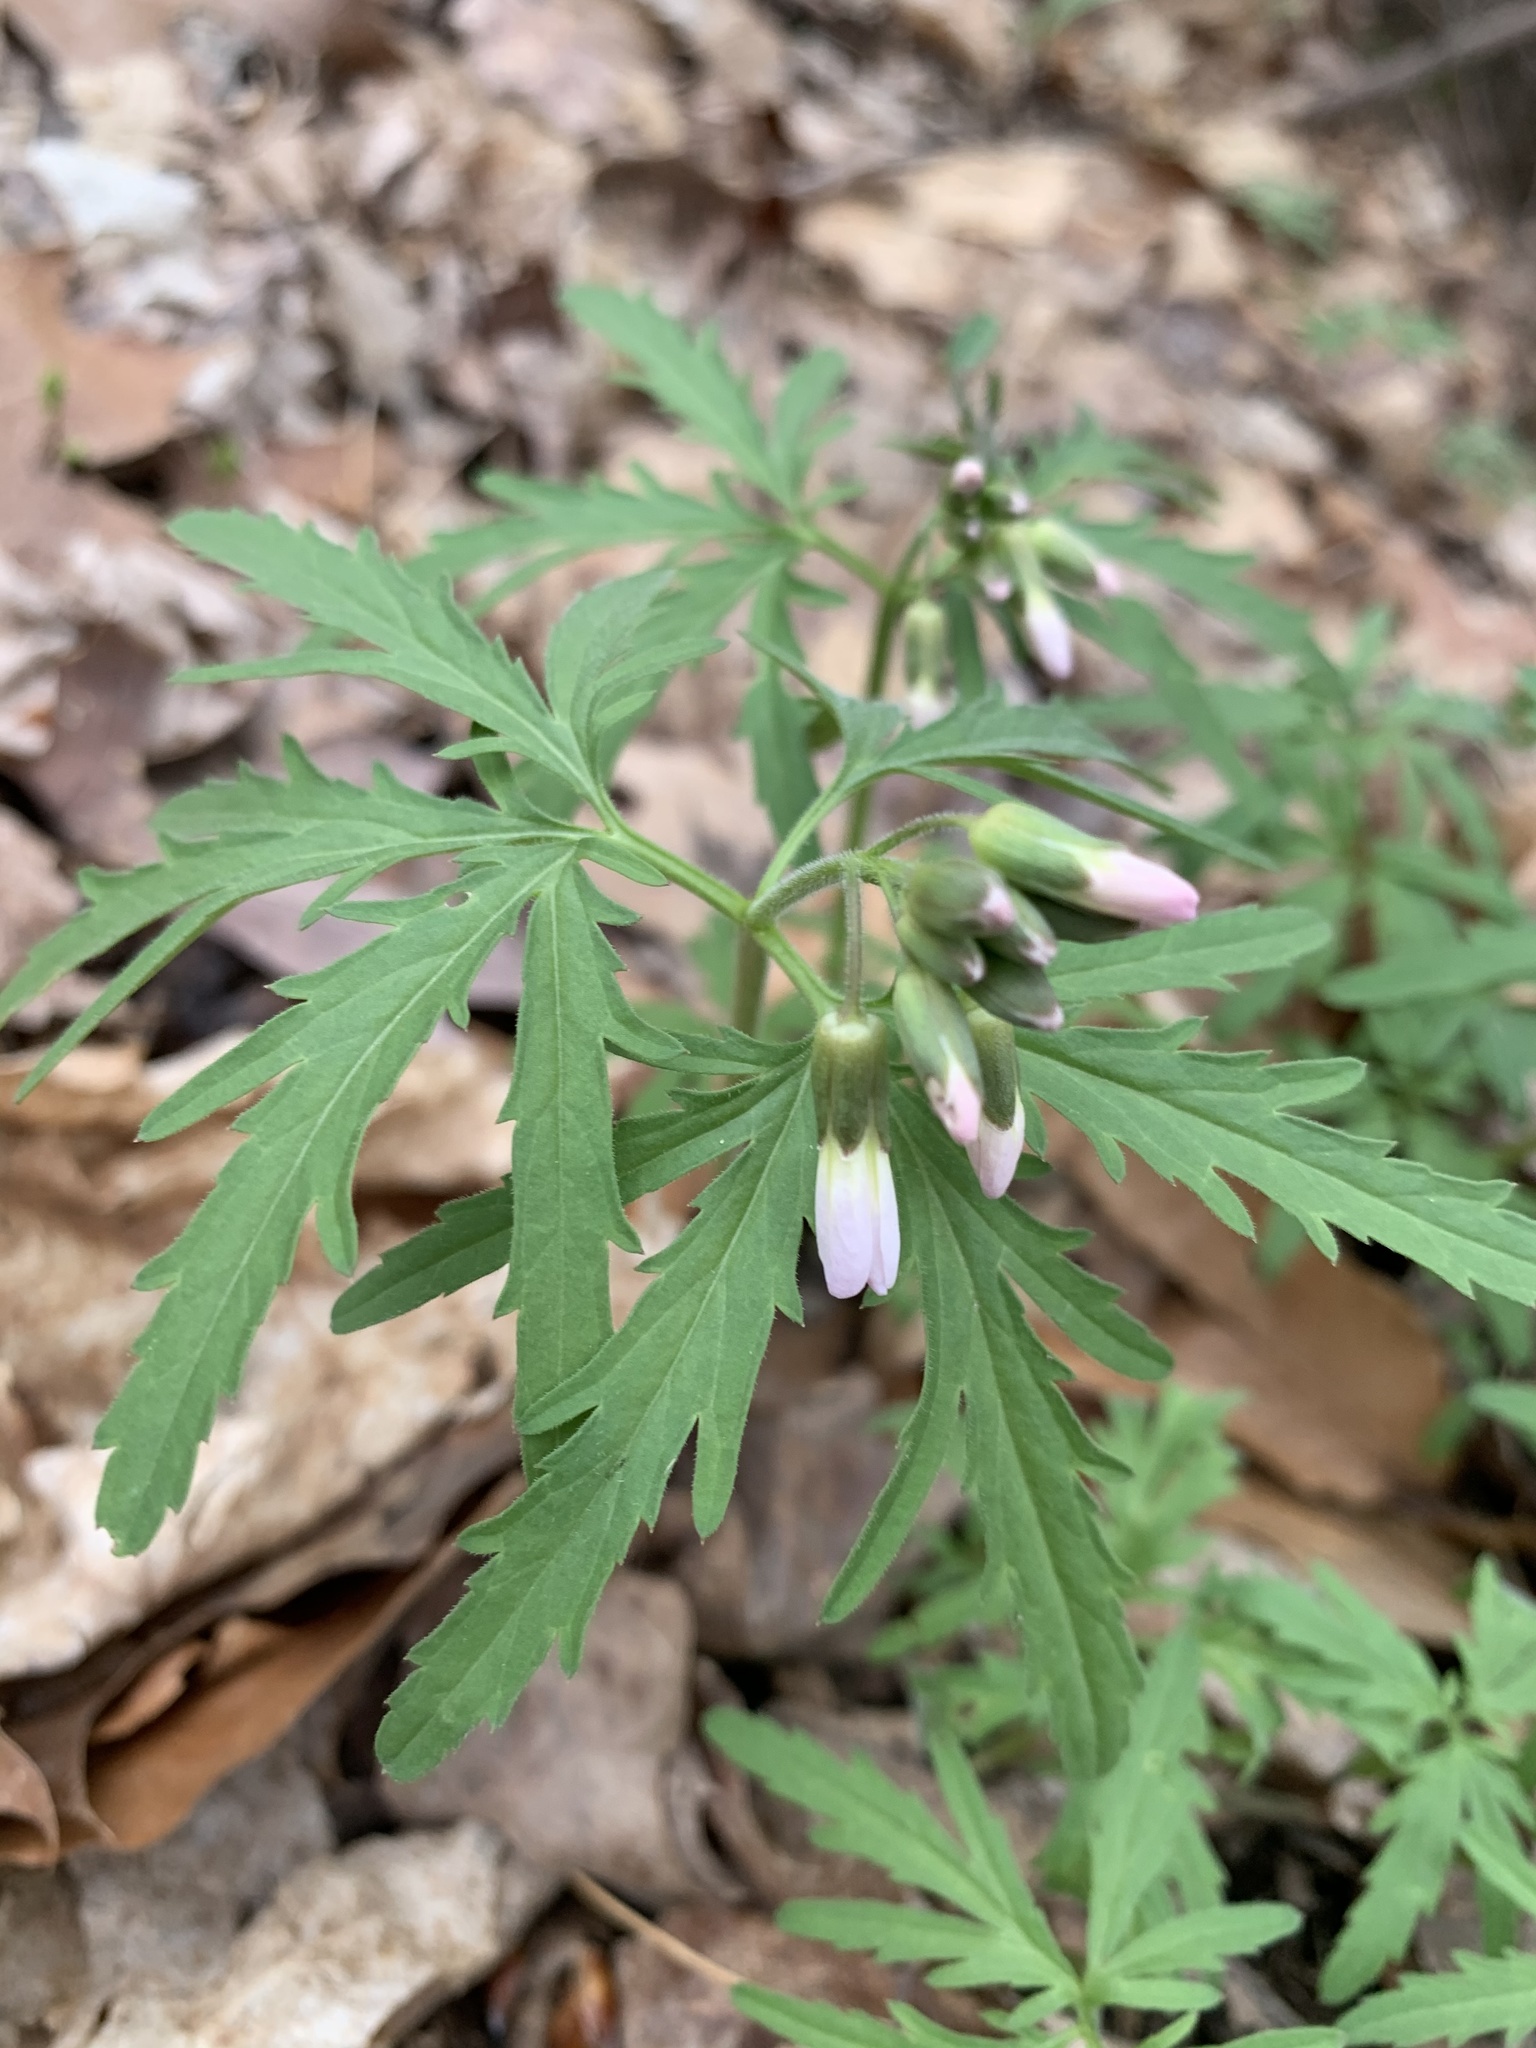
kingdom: Plantae
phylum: Tracheophyta
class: Magnoliopsida
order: Brassicales
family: Brassicaceae
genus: Cardamine
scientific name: Cardamine concatenata
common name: Cut-leaf toothcup
